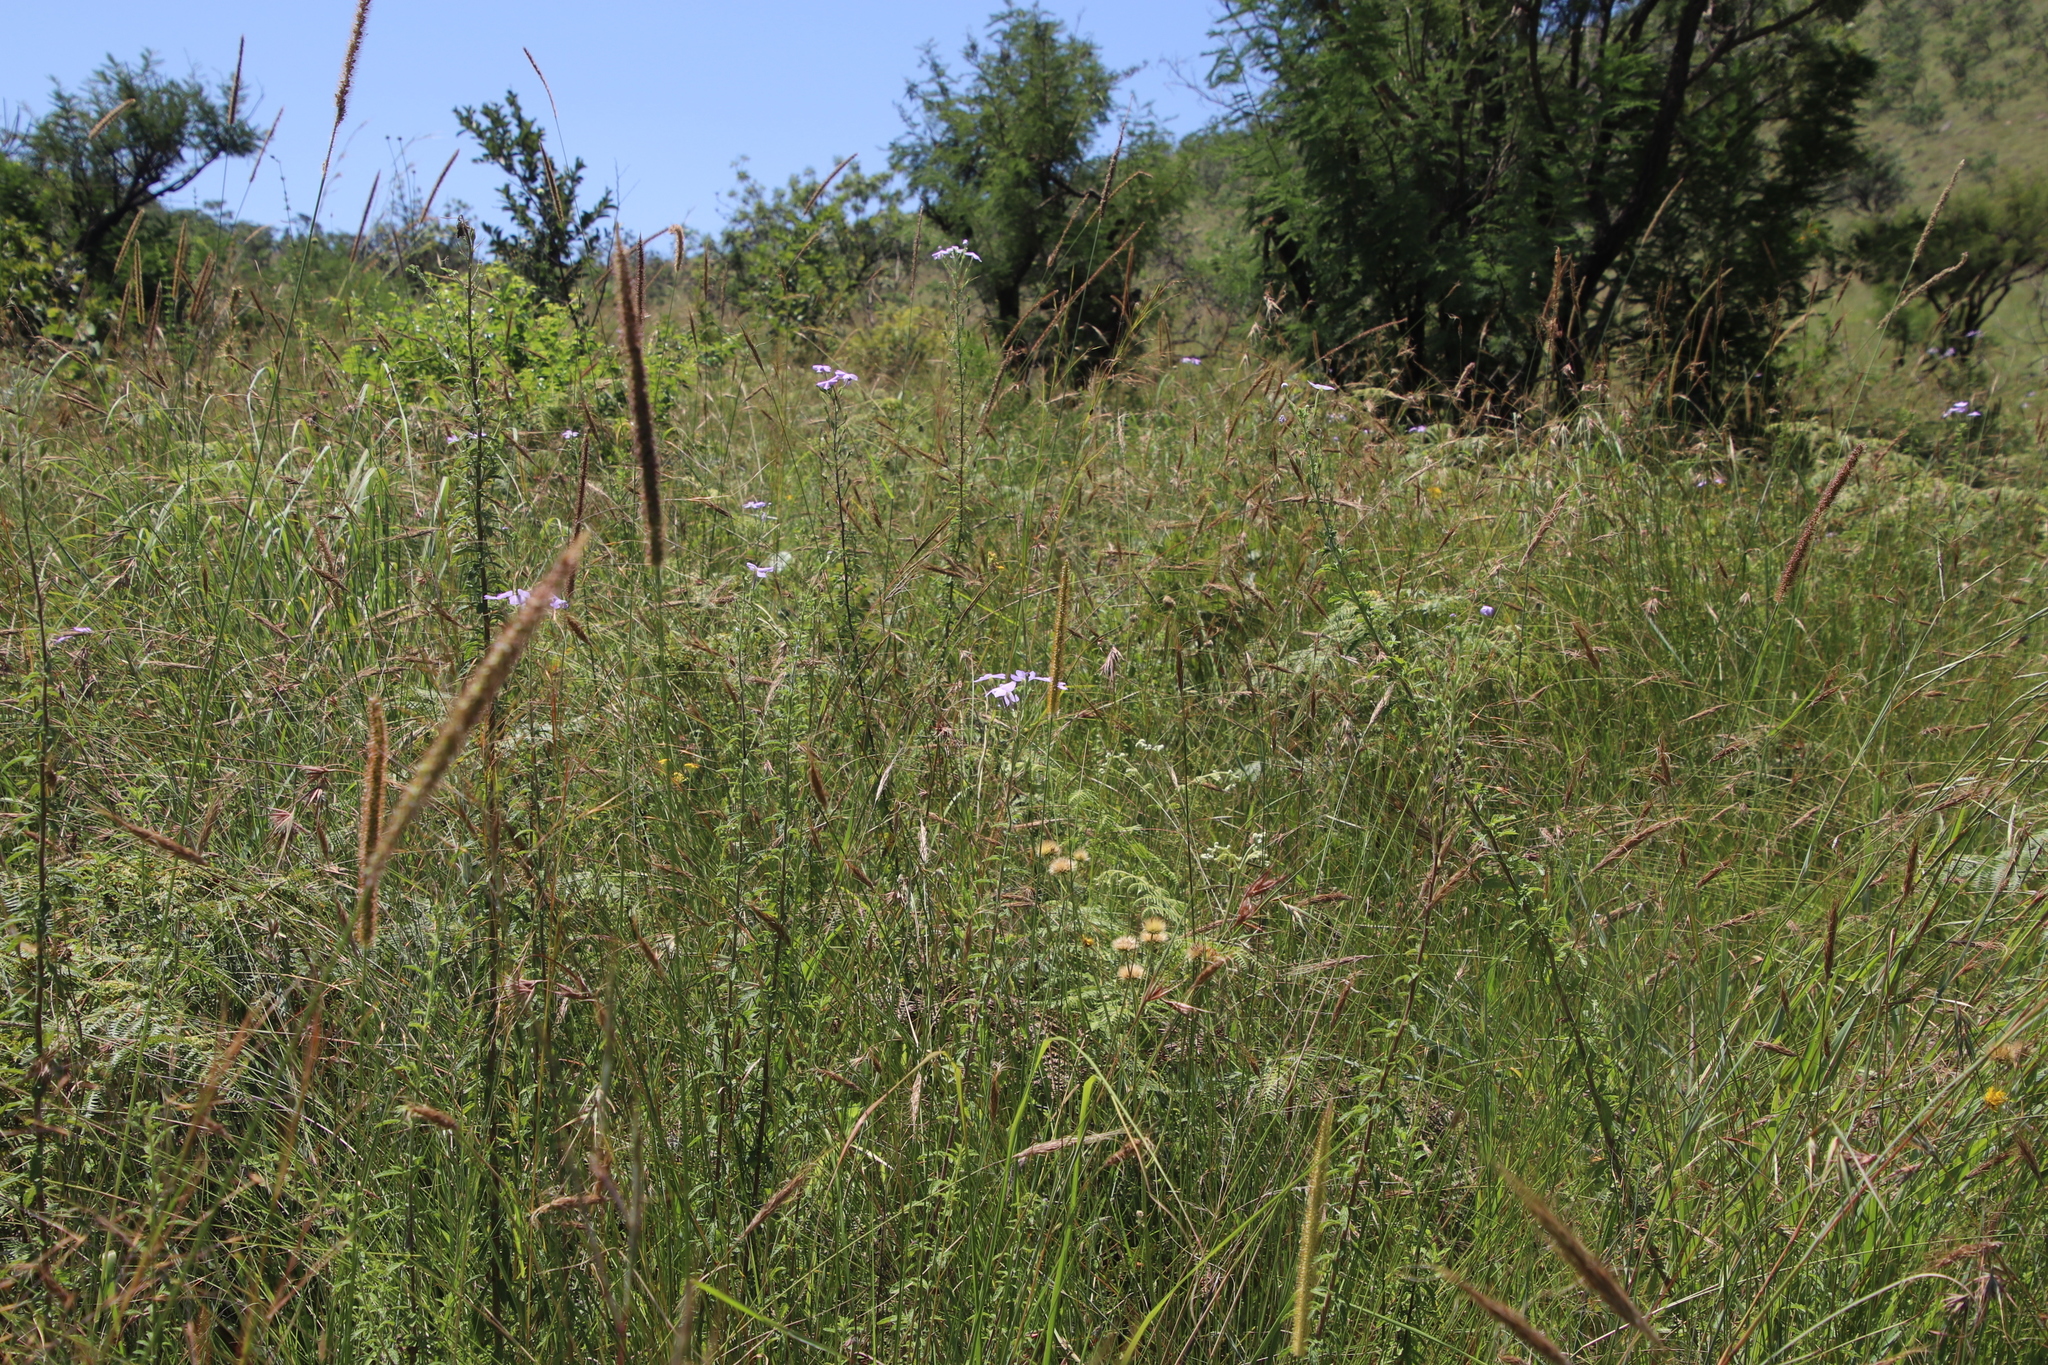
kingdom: Plantae
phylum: Tracheophyta
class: Magnoliopsida
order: Lamiales
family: Scrophulariaceae
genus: Jamesbrittenia
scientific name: Jamesbrittenia grandiflora
